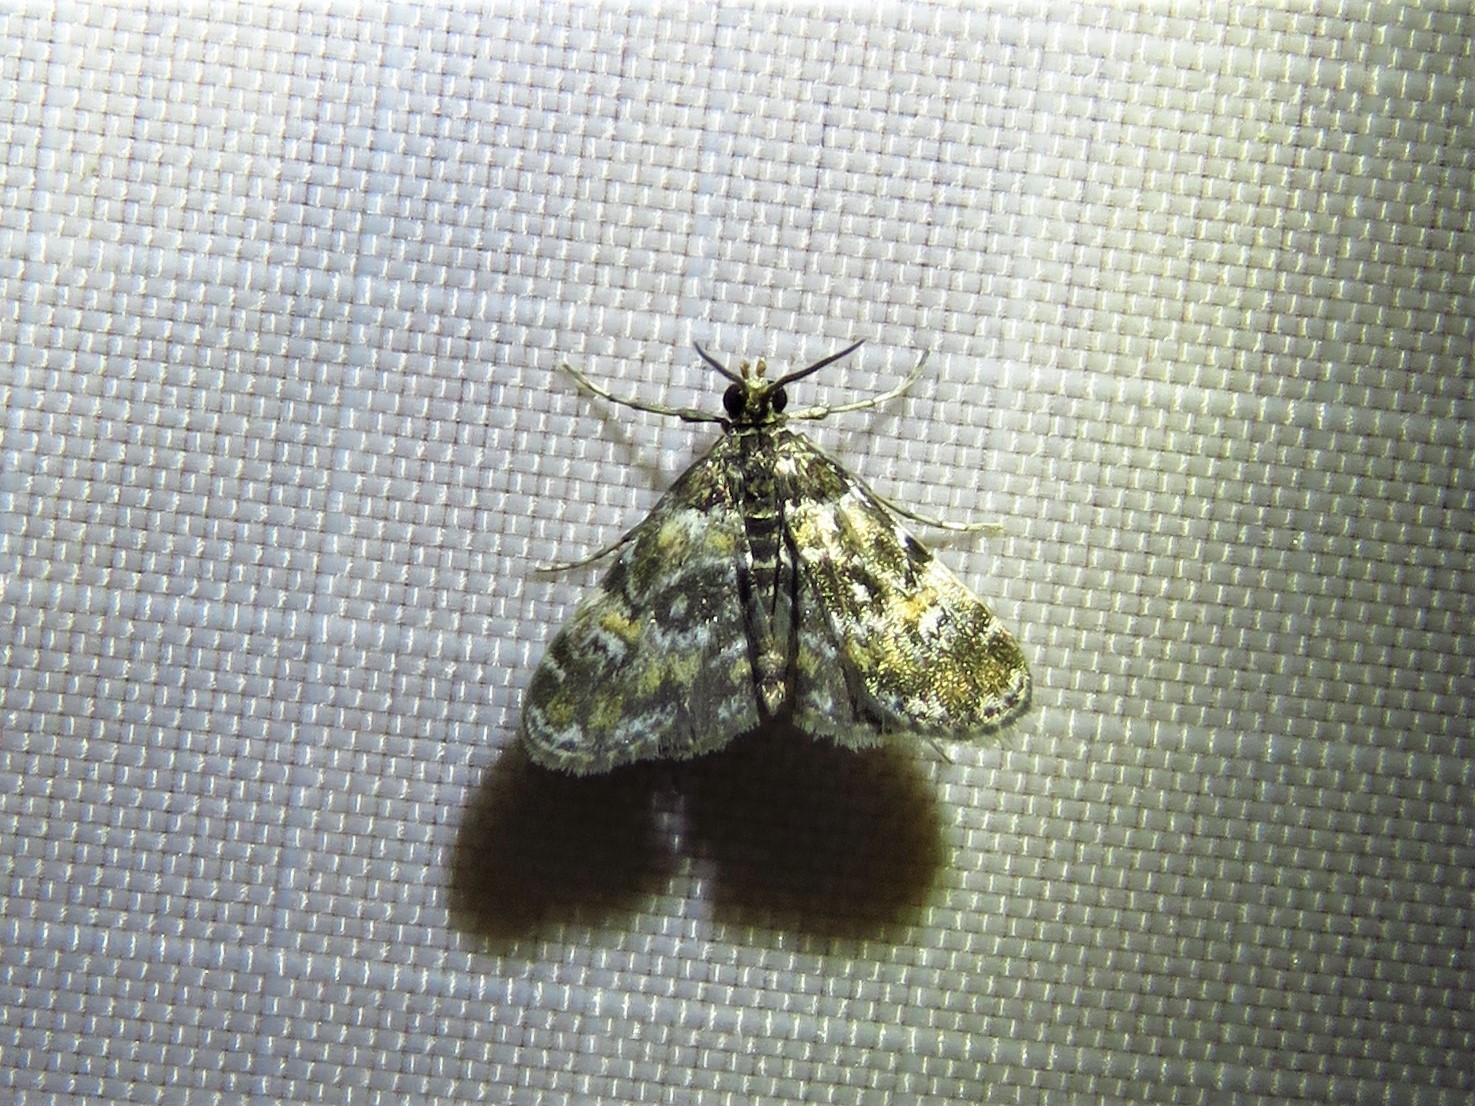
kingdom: Animalia
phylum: Arthropoda
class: Insecta
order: Lepidoptera
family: Crambidae
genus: Elophila
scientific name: Elophila obliteralis
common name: Waterlily leafcutter moth
